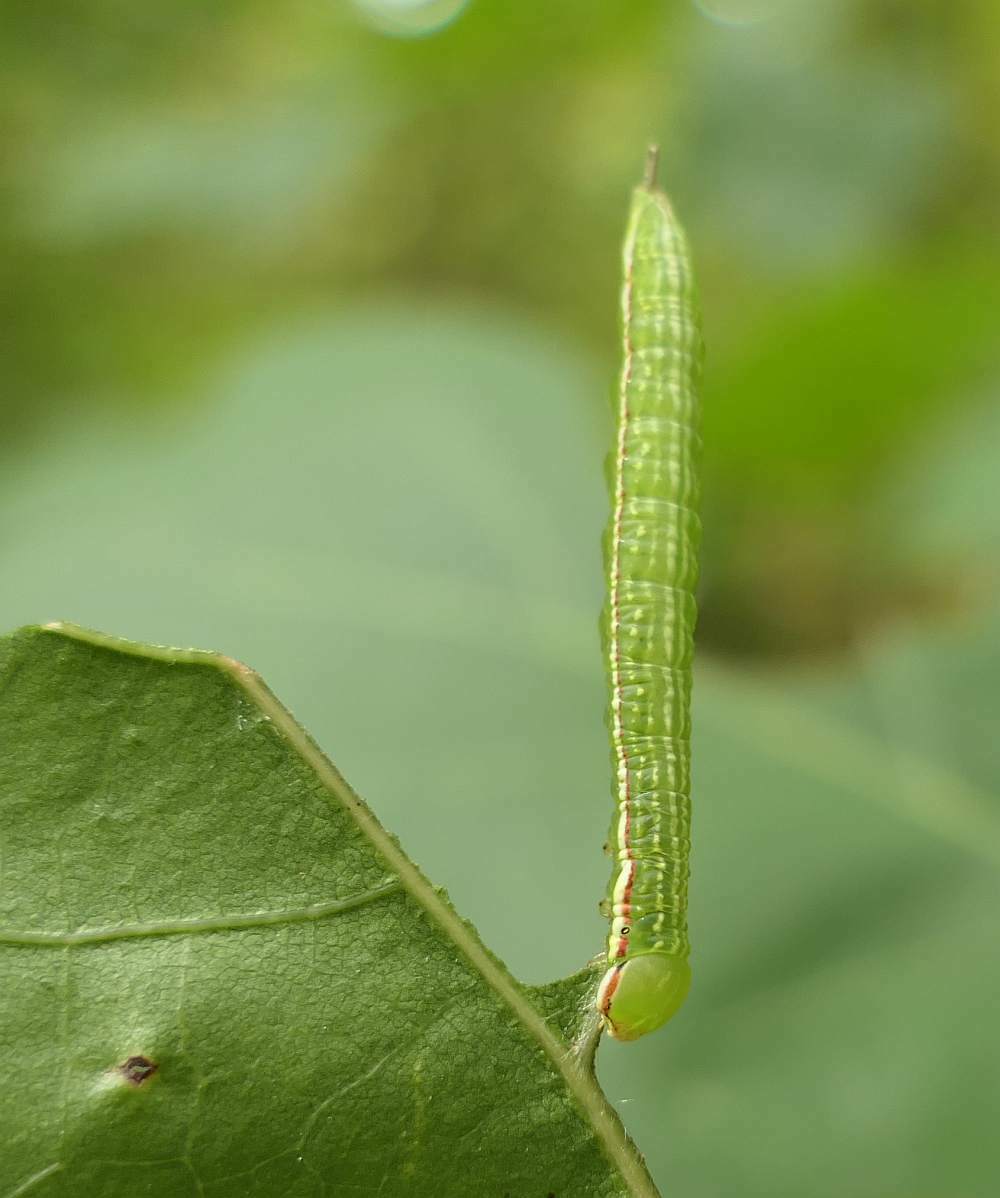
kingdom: Animalia
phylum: Arthropoda
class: Insecta
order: Lepidoptera
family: Notodontidae
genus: Peridea
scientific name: Peridea angulosa
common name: Angulose prominent
